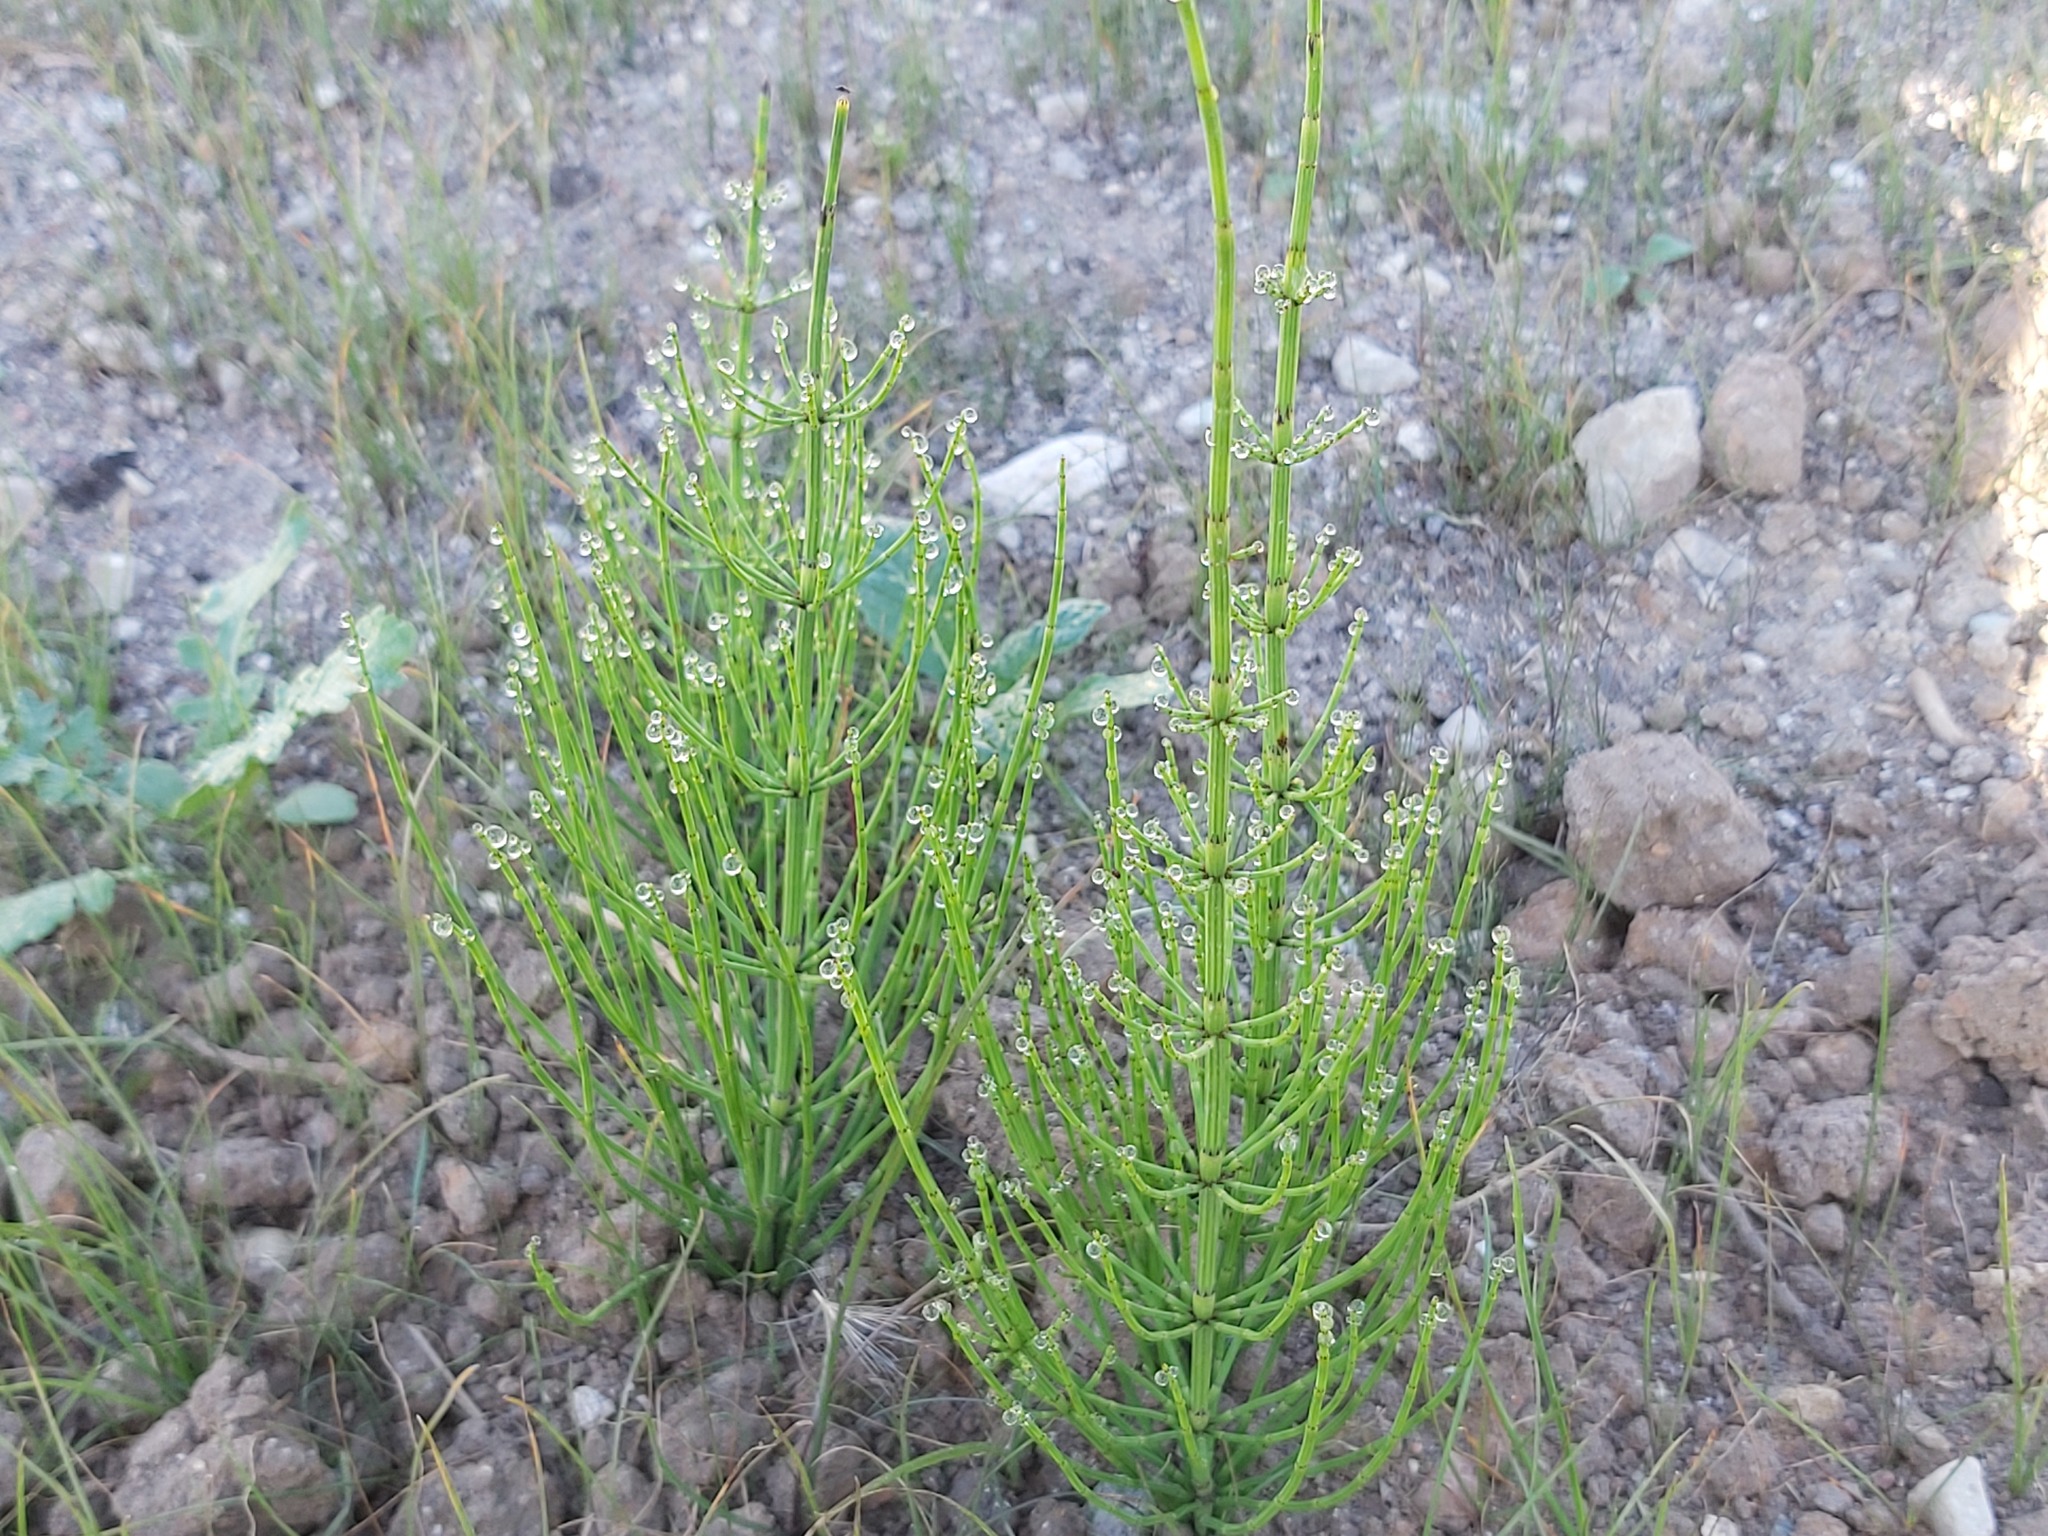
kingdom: Plantae
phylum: Tracheophyta
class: Polypodiopsida
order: Equisetales
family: Equisetaceae
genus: Equisetum
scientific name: Equisetum palustre
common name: Marsh horsetail
